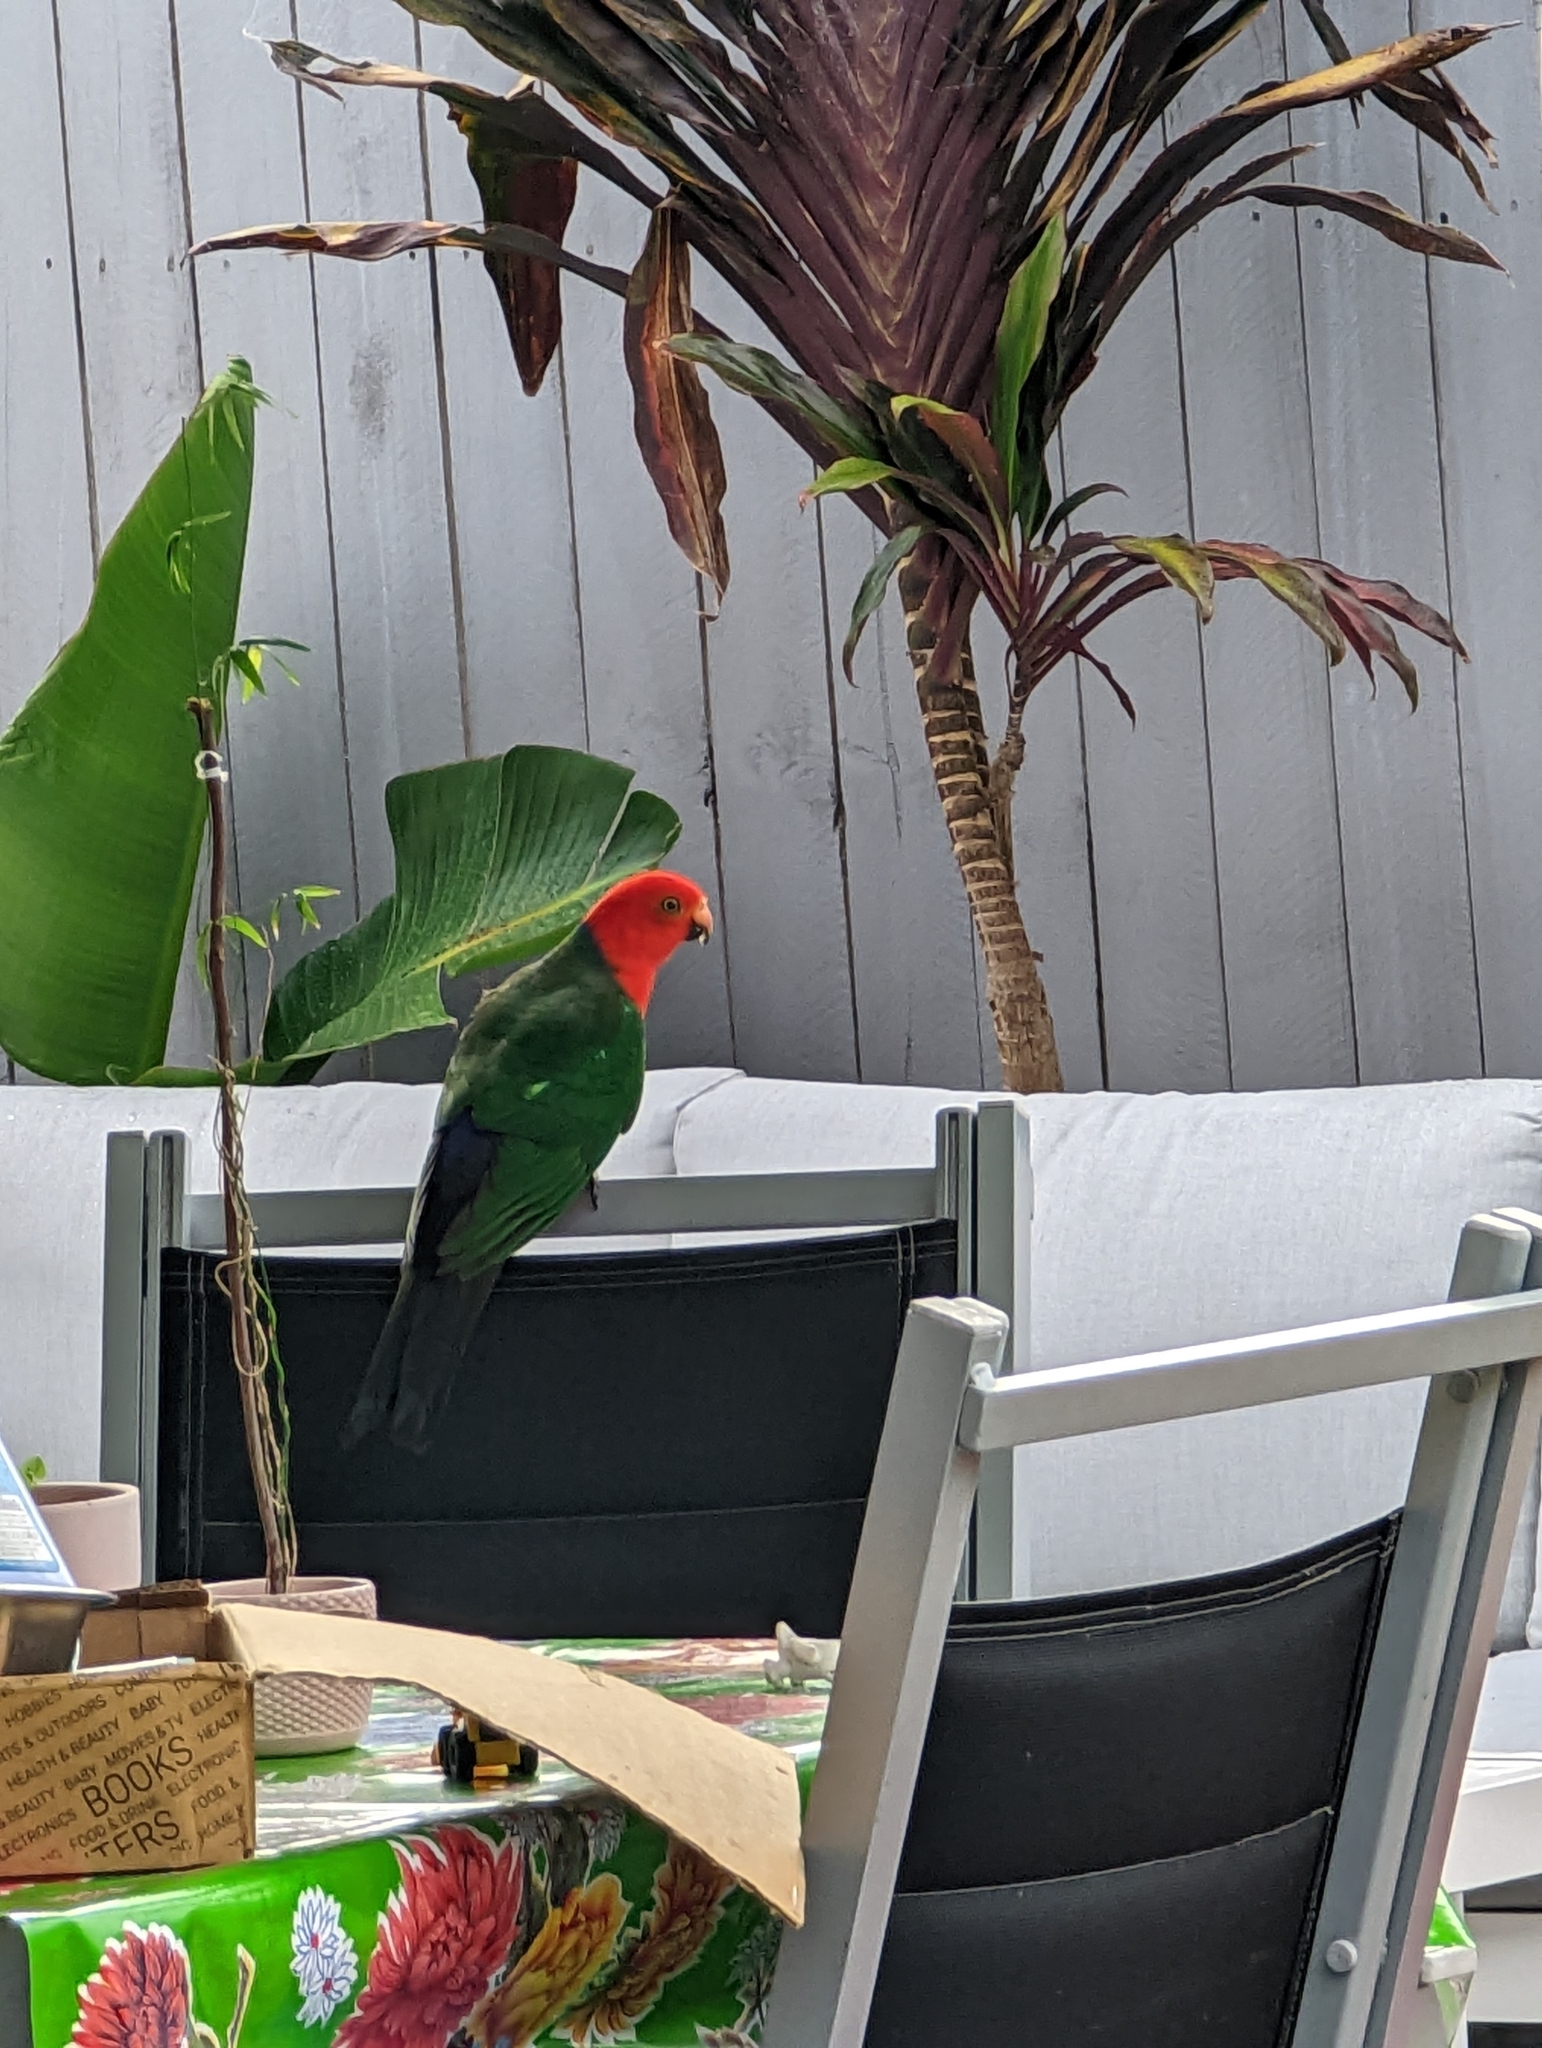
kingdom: Animalia
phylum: Chordata
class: Aves
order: Psittaciformes
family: Psittacidae
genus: Alisterus
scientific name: Alisterus scapularis
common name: Australian king parrot
